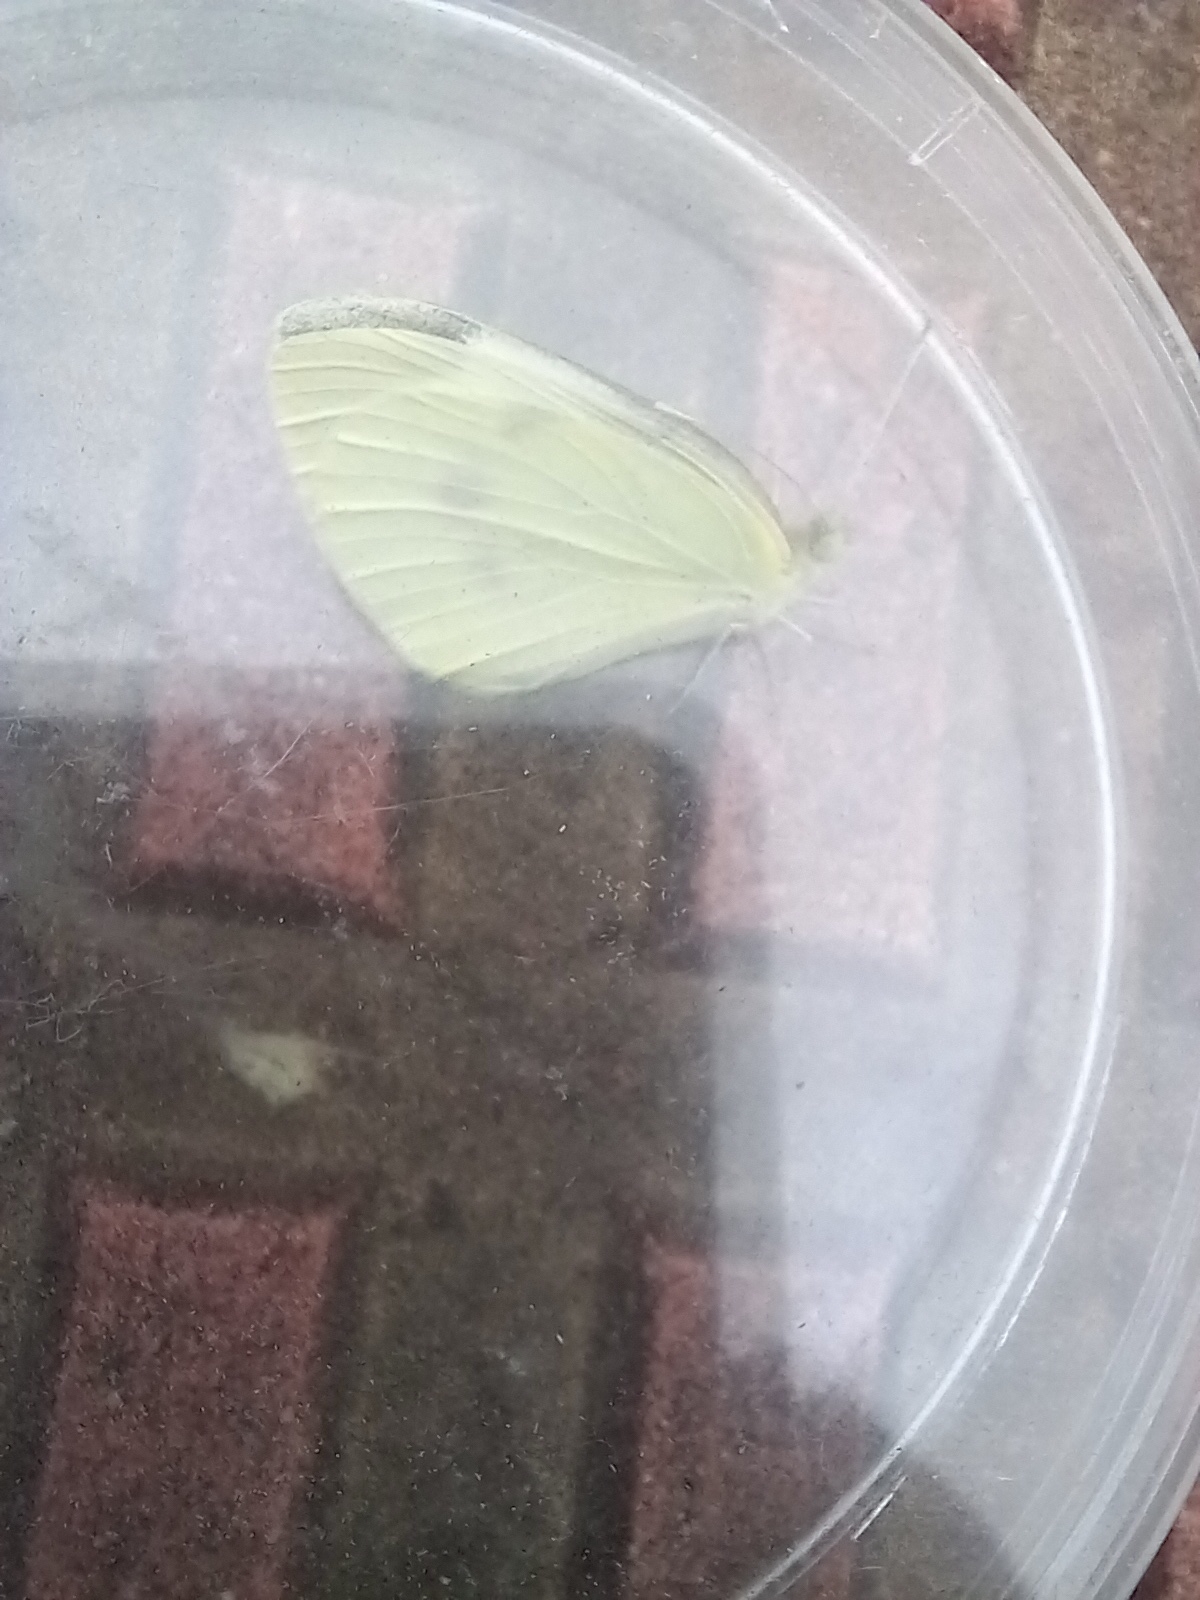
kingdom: Animalia
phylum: Arthropoda
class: Insecta
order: Lepidoptera
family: Pieridae
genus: Pieris
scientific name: Pieris rapae
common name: Small white
